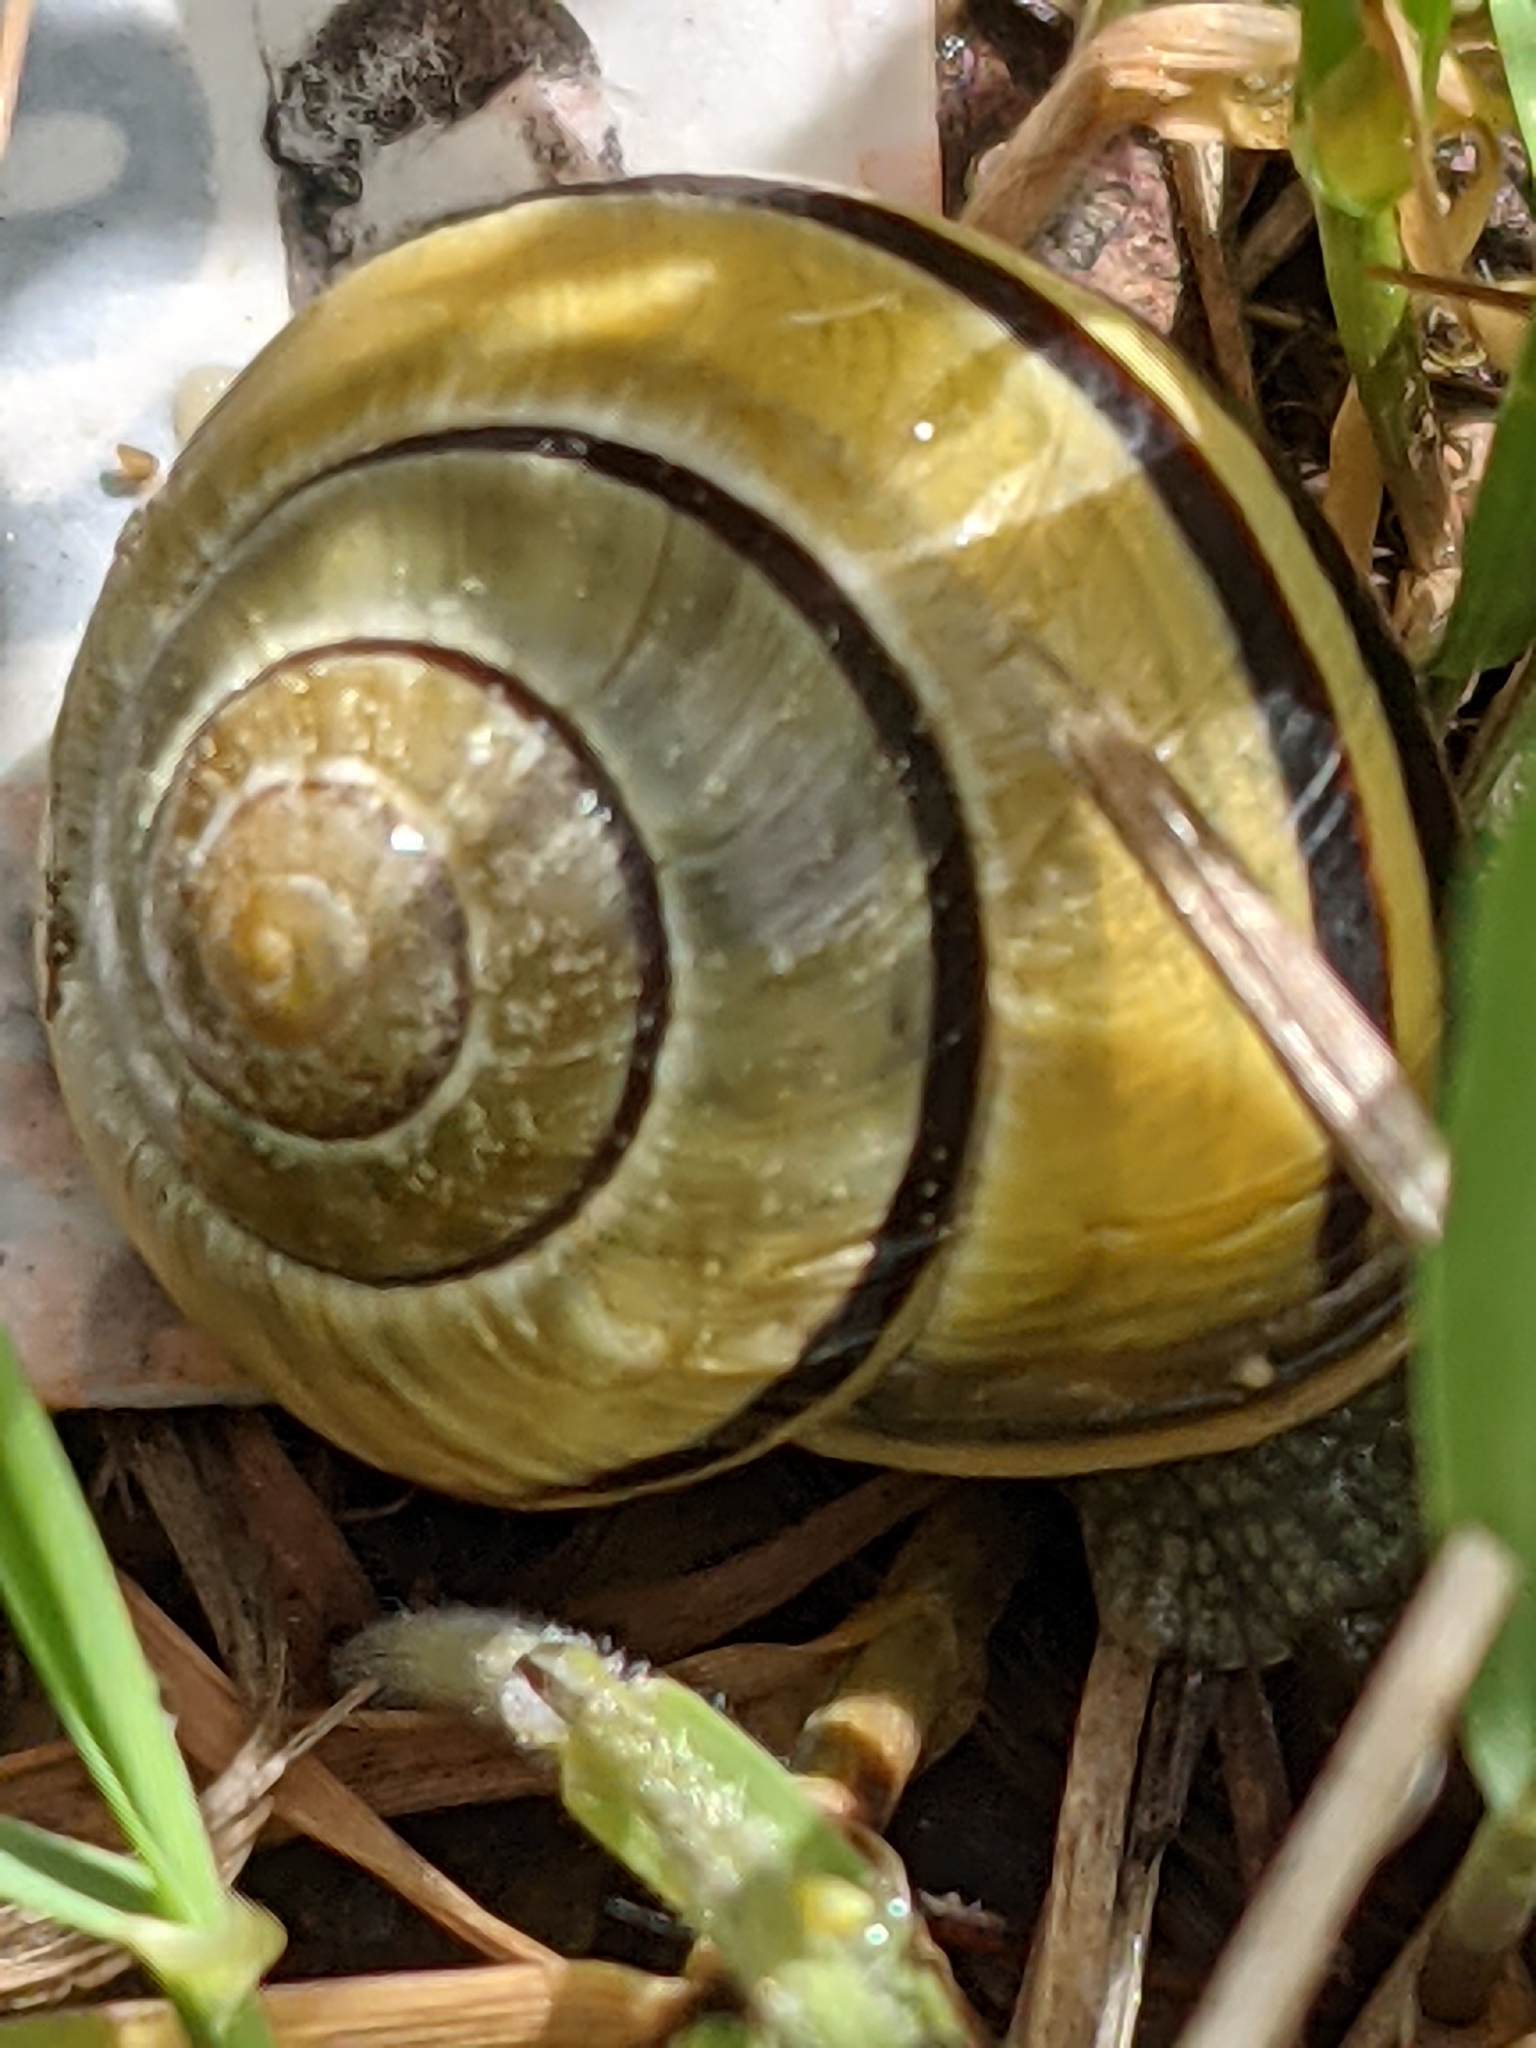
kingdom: Animalia
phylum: Mollusca
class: Gastropoda
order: Stylommatophora
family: Helicidae
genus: Cepaea
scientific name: Cepaea nemoralis
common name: Grovesnail
